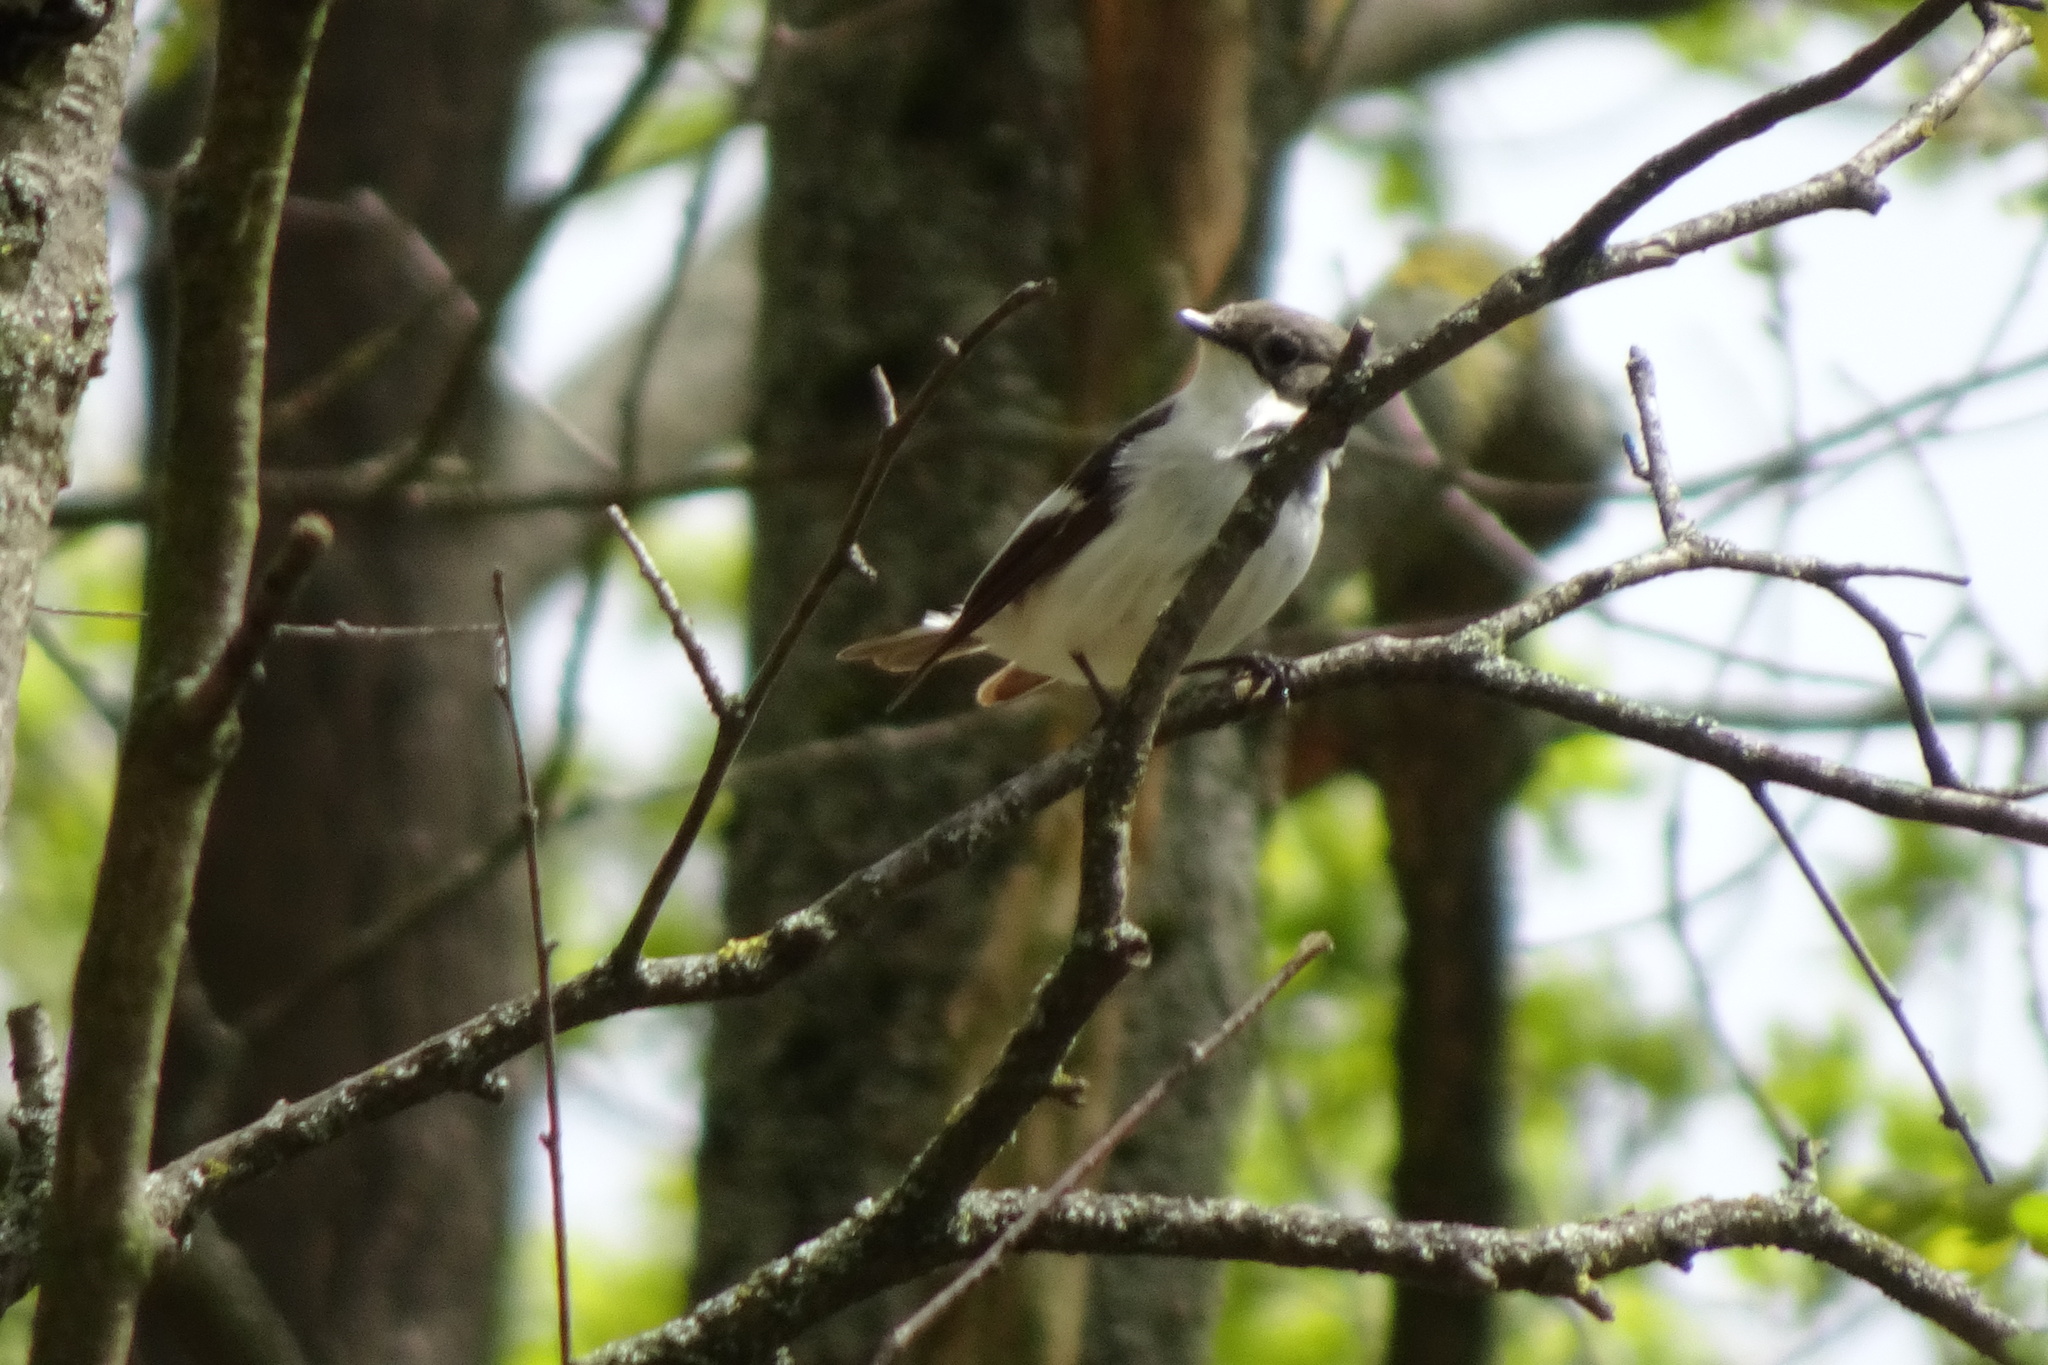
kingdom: Animalia
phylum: Chordata
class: Aves
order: Passeriformes
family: Muscicapidae
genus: Ficedula
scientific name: Ficedula hypoleuca
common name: European pied flycatcher
